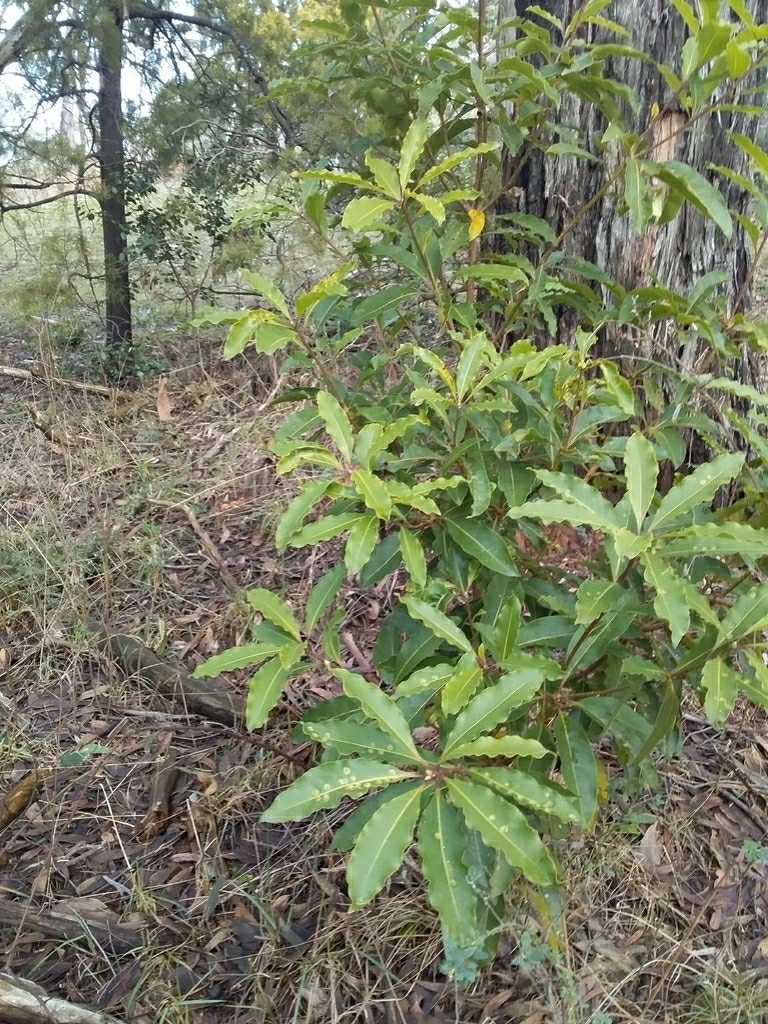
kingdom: Animalia
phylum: Arthropoda
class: Insecta
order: Diptera
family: Agromyzidae
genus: Phytoliriomyza
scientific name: Phytoliriomyza pittosporophylli
